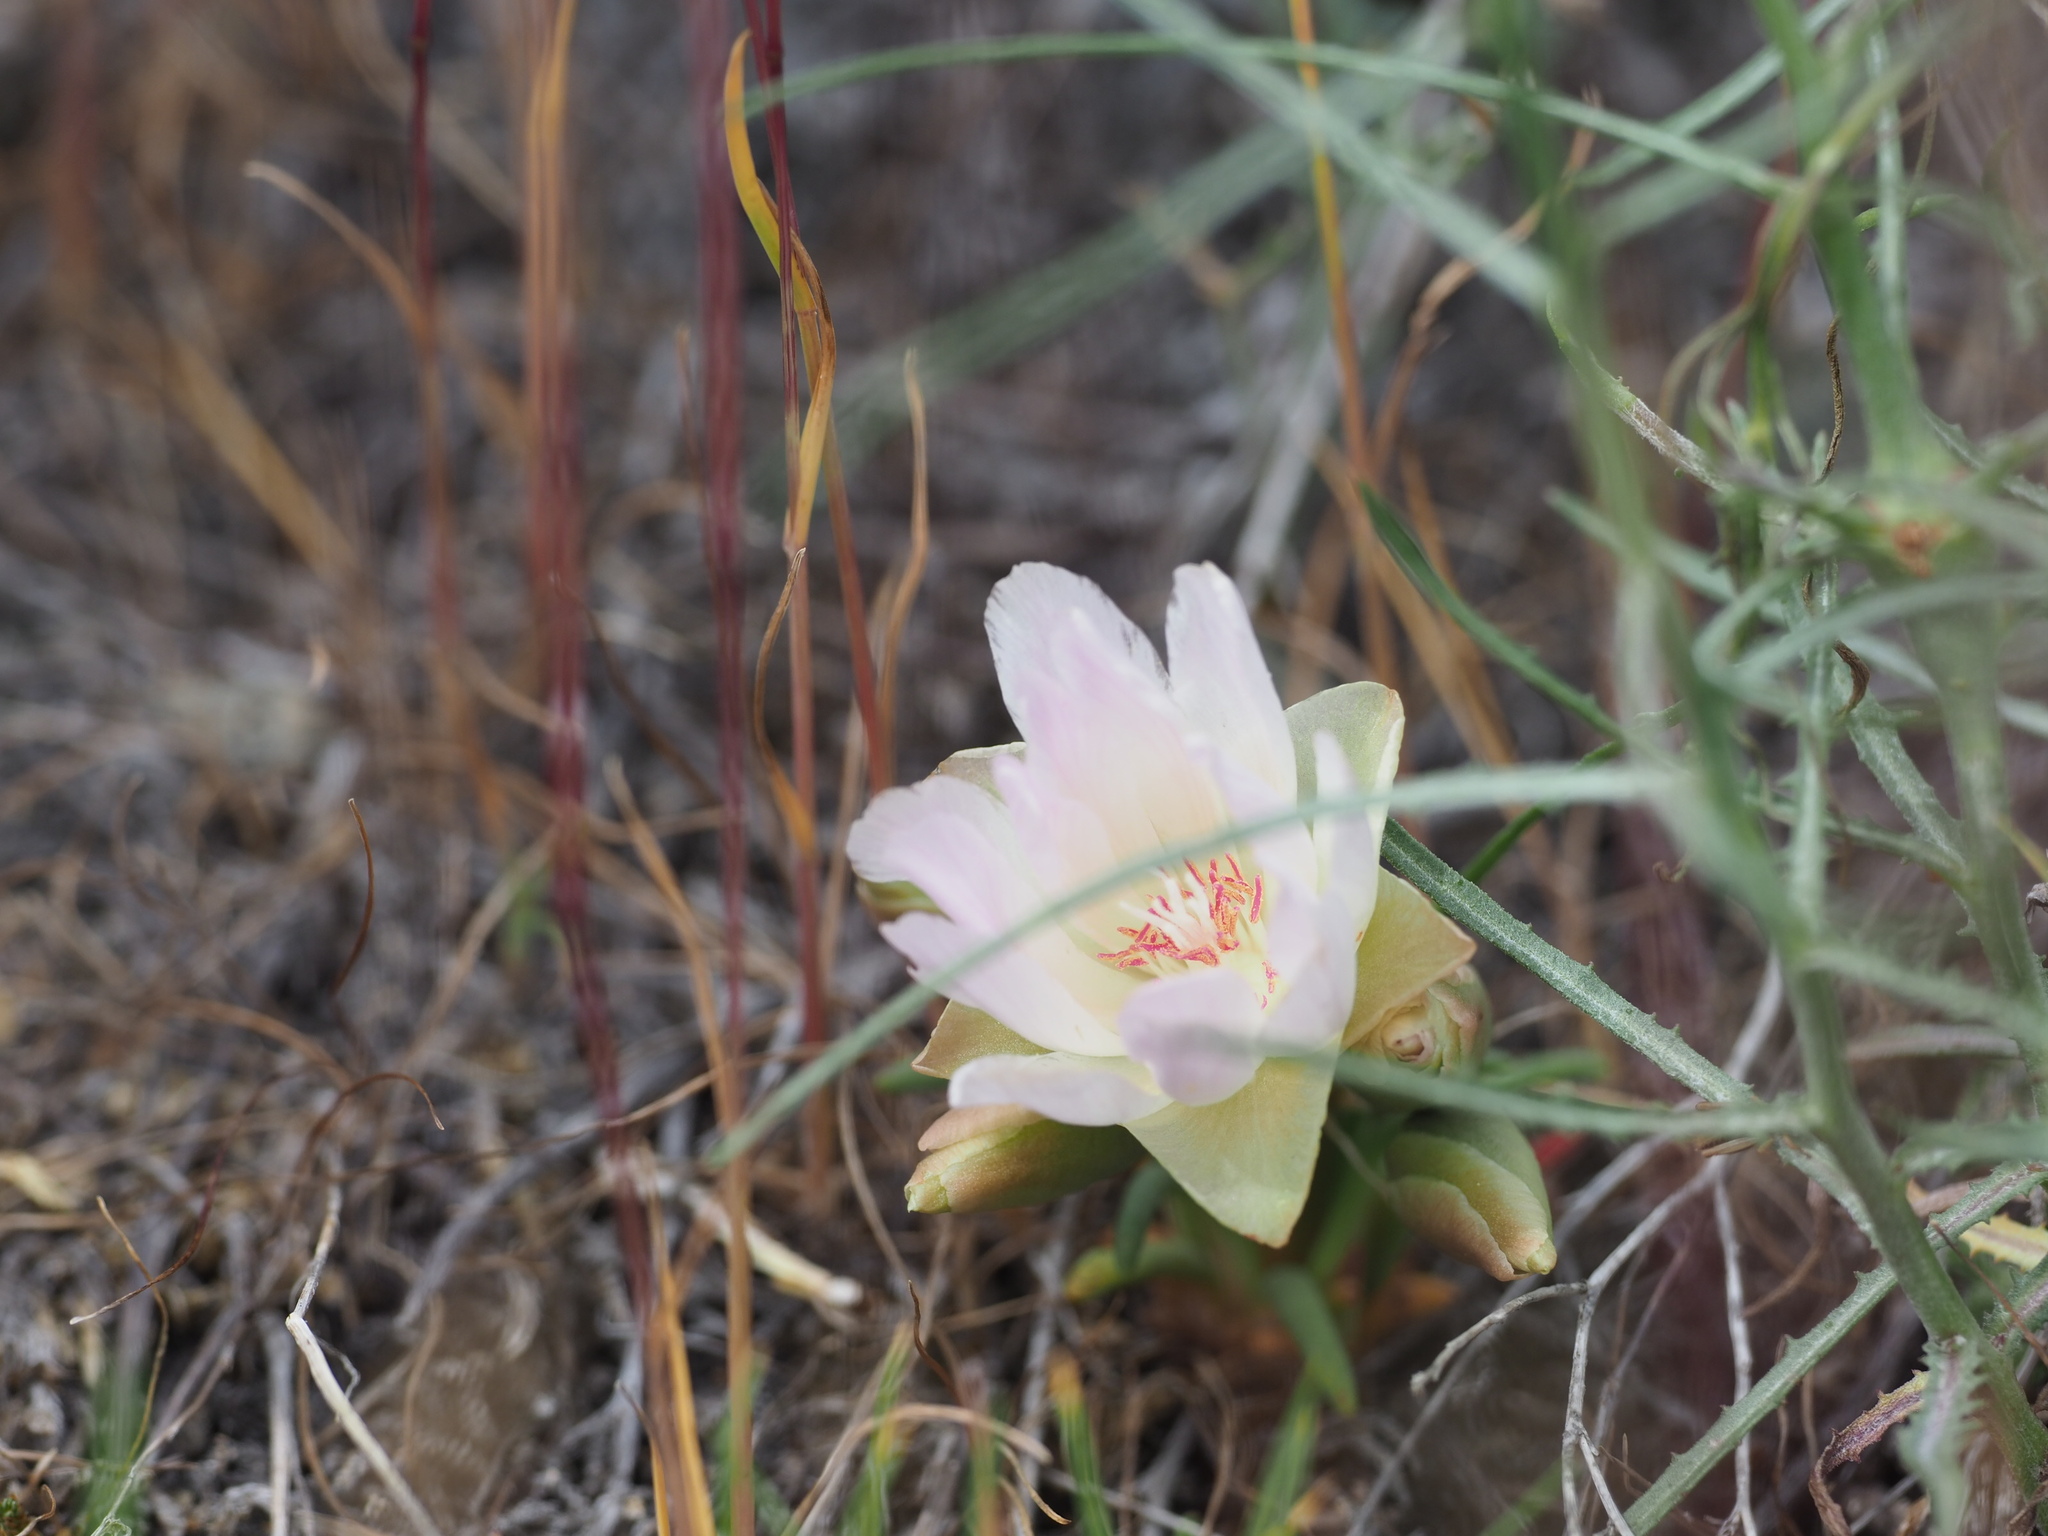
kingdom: Plantae
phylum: Tracheophyta
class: Magnoliopsida
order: Caryophyllales
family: Montiaceae
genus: Lewisia
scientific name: Lewisia rediviva
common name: Bitter-root
